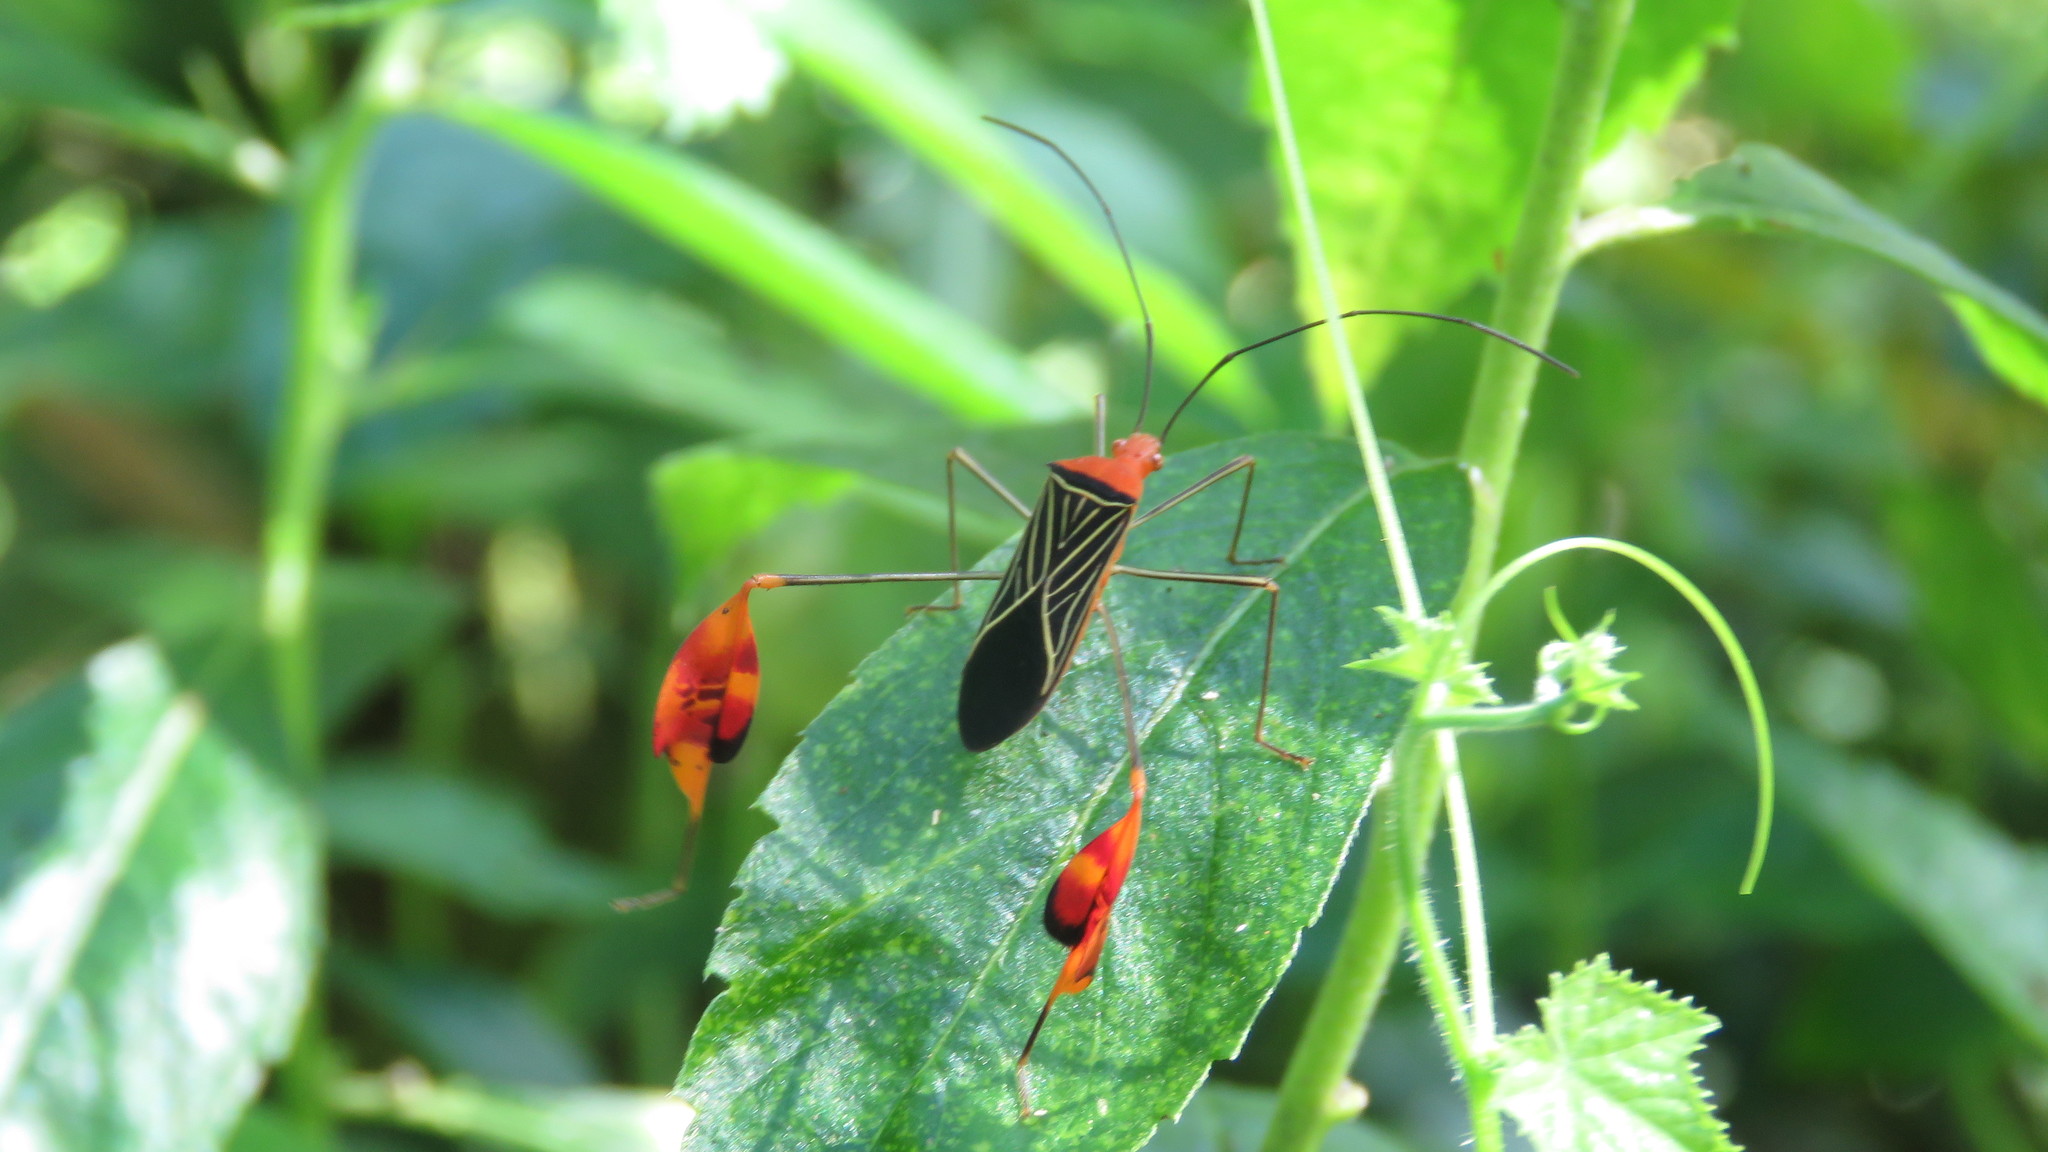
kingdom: Animalia
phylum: Arthropoda
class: Insecta
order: Hemiptera
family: Coreidae
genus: Bitta
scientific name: Bitta
